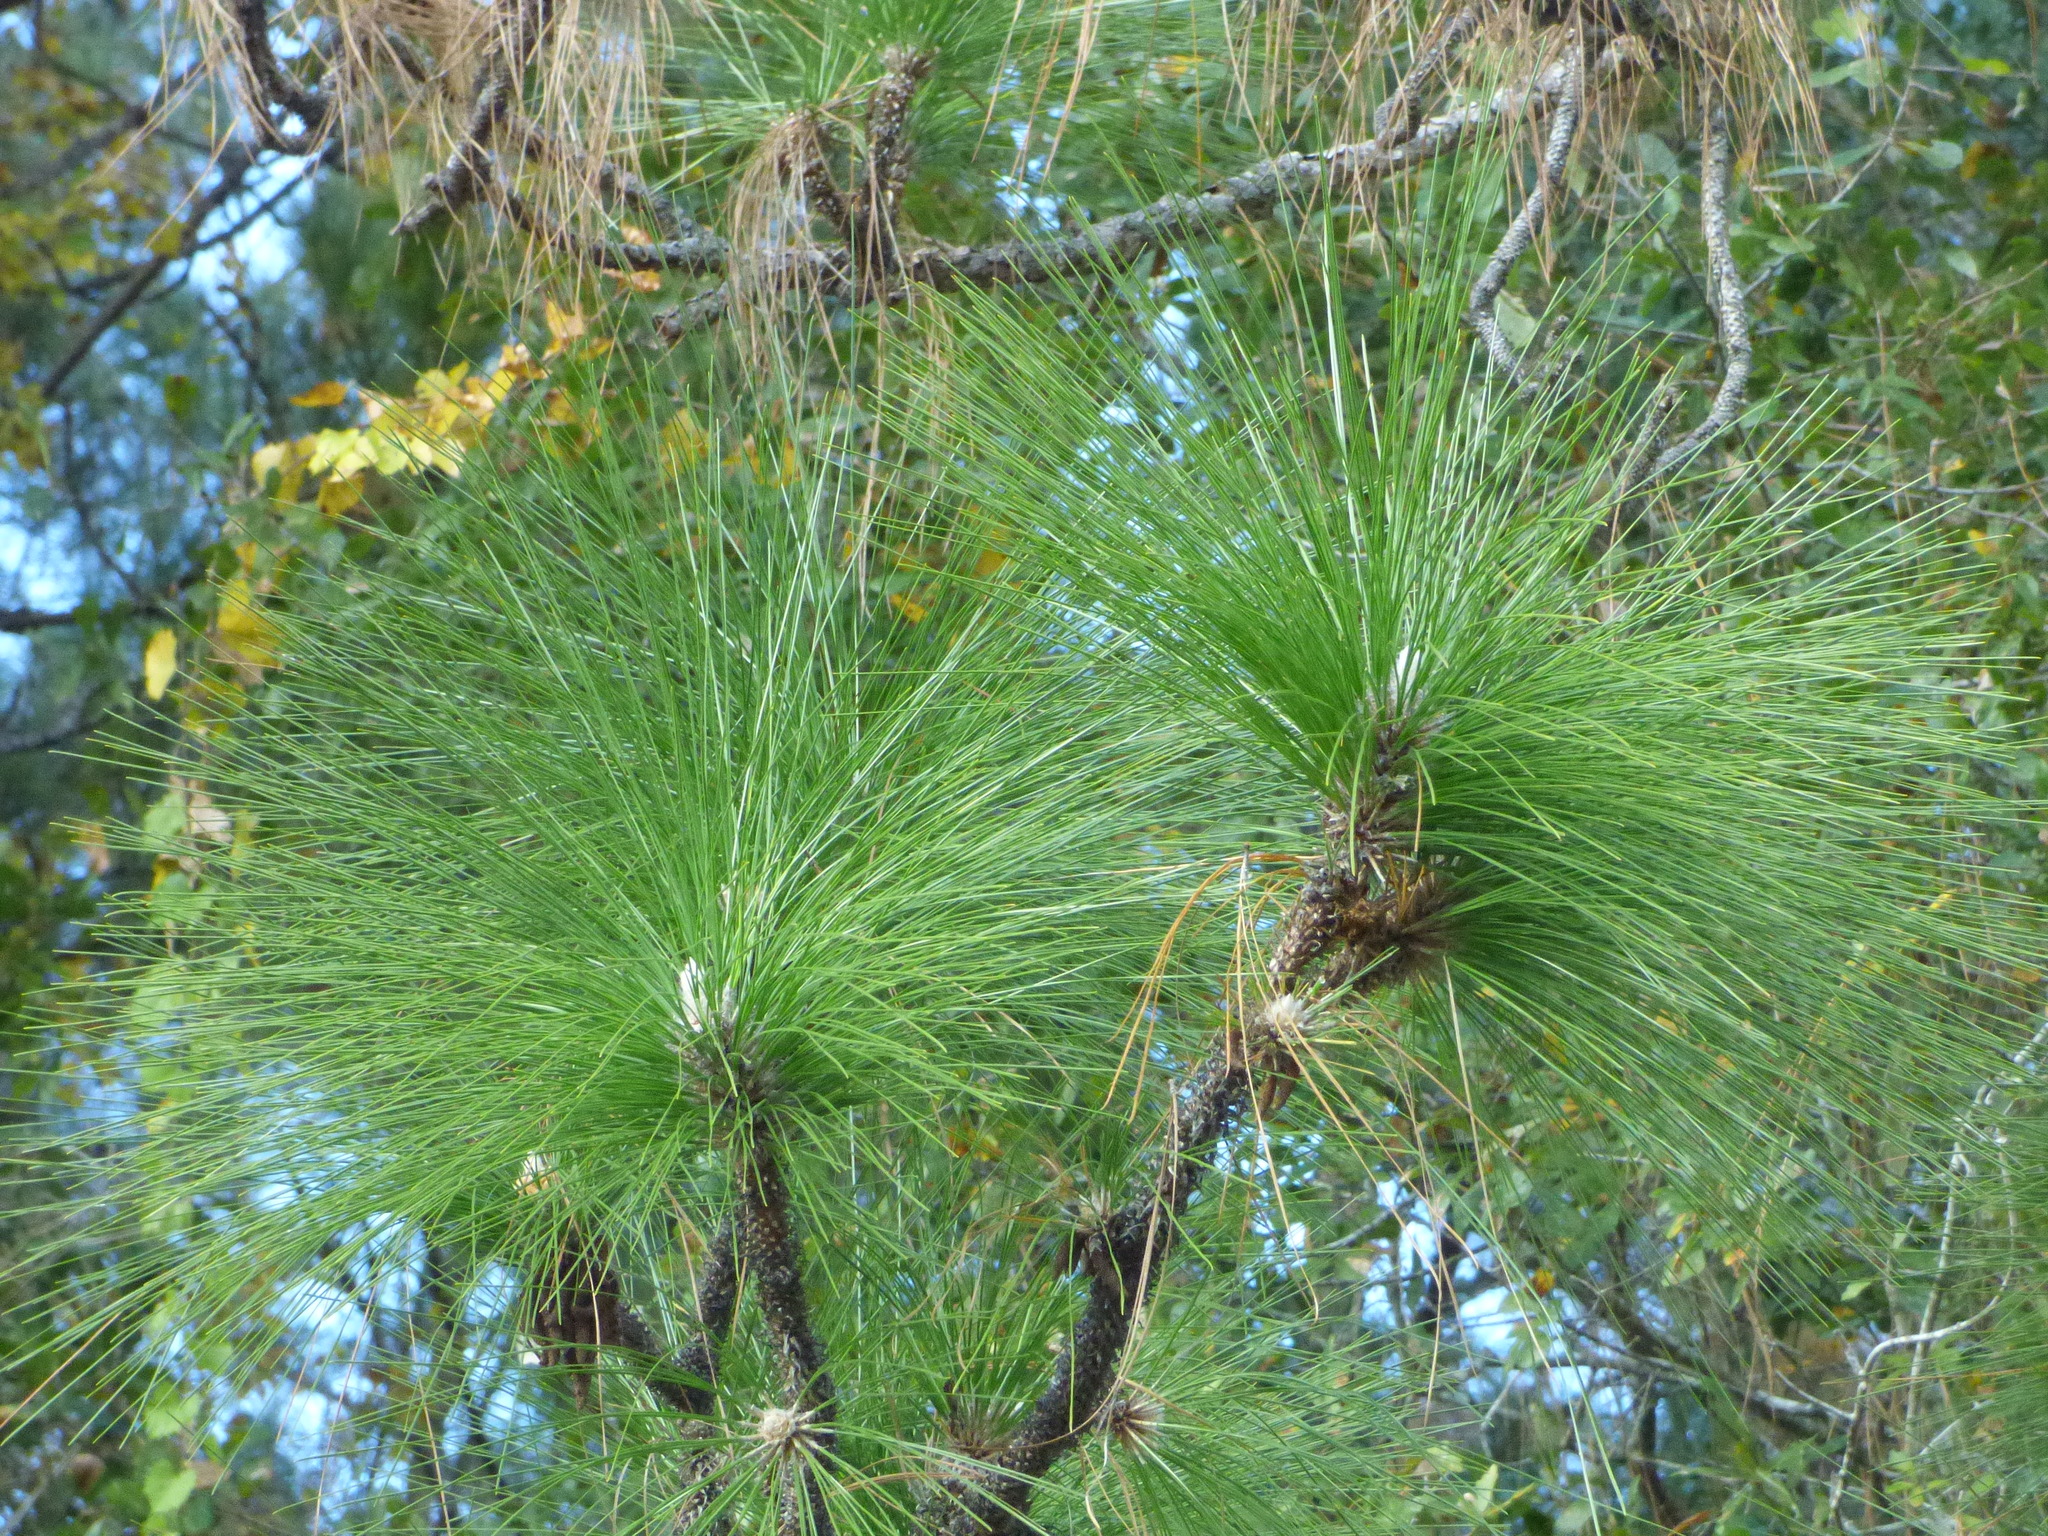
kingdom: Plantae
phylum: Tracheophyta
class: Pinopsida
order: Pinales
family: Pinaceae
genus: Pinus
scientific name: Pinus palustris
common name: Longleaf pine
